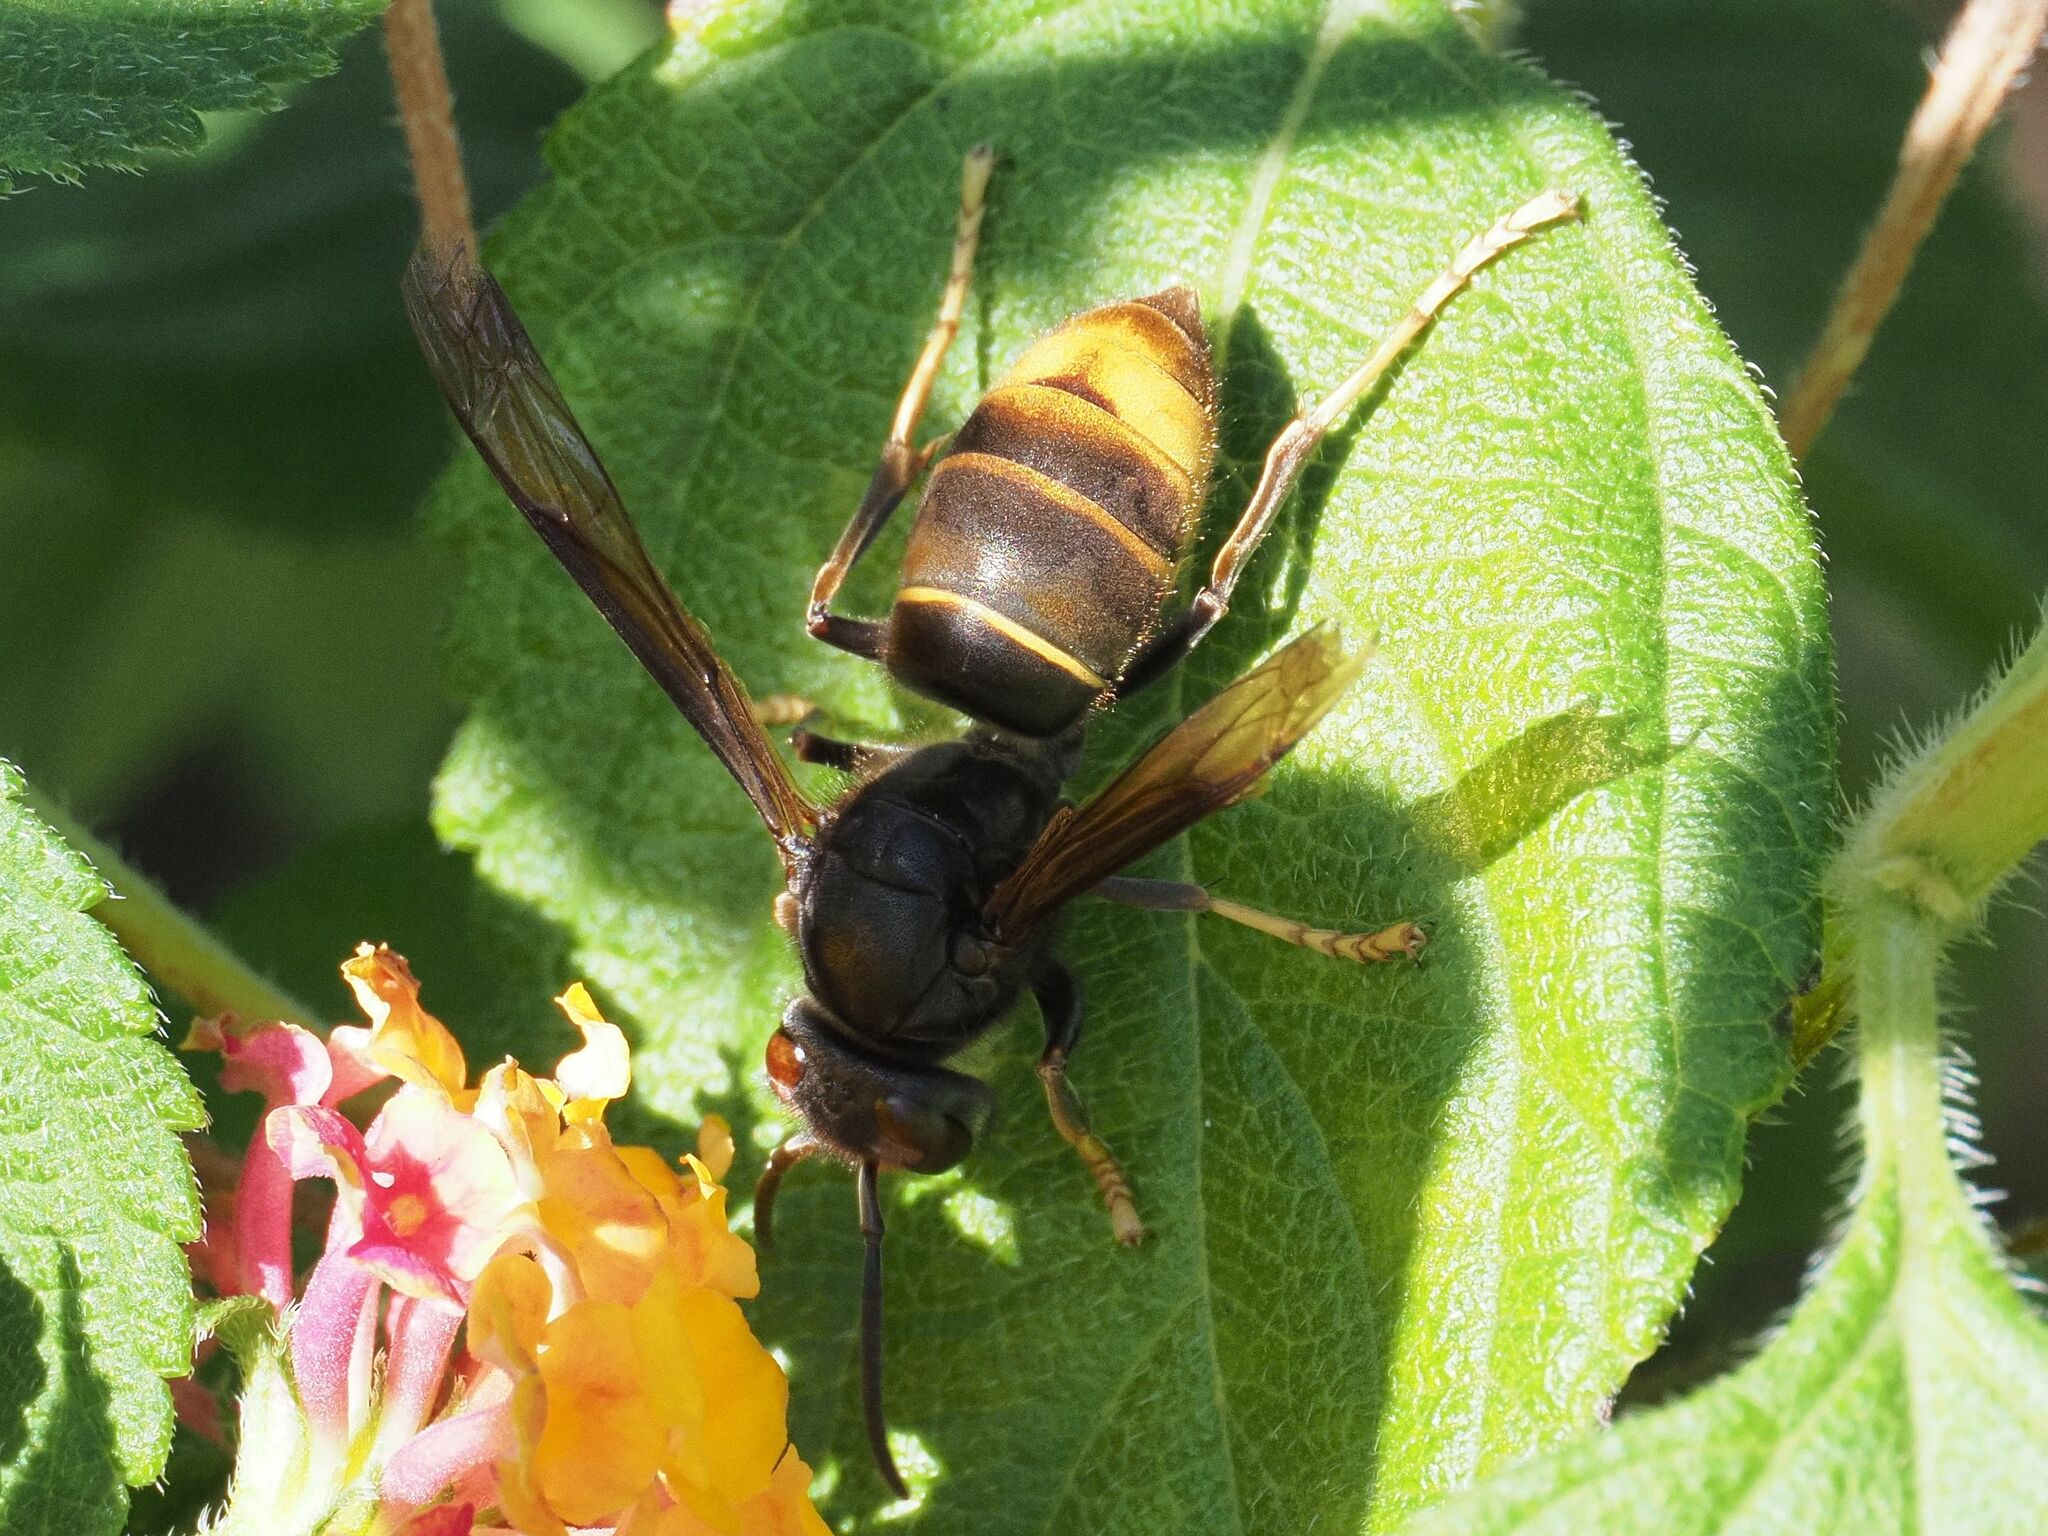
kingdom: Animalia
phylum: Arthropoda
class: Insecta
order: Hymenoptera
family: Vespidae
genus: Vespa
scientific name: Vespa velutina
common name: Asian hornet
